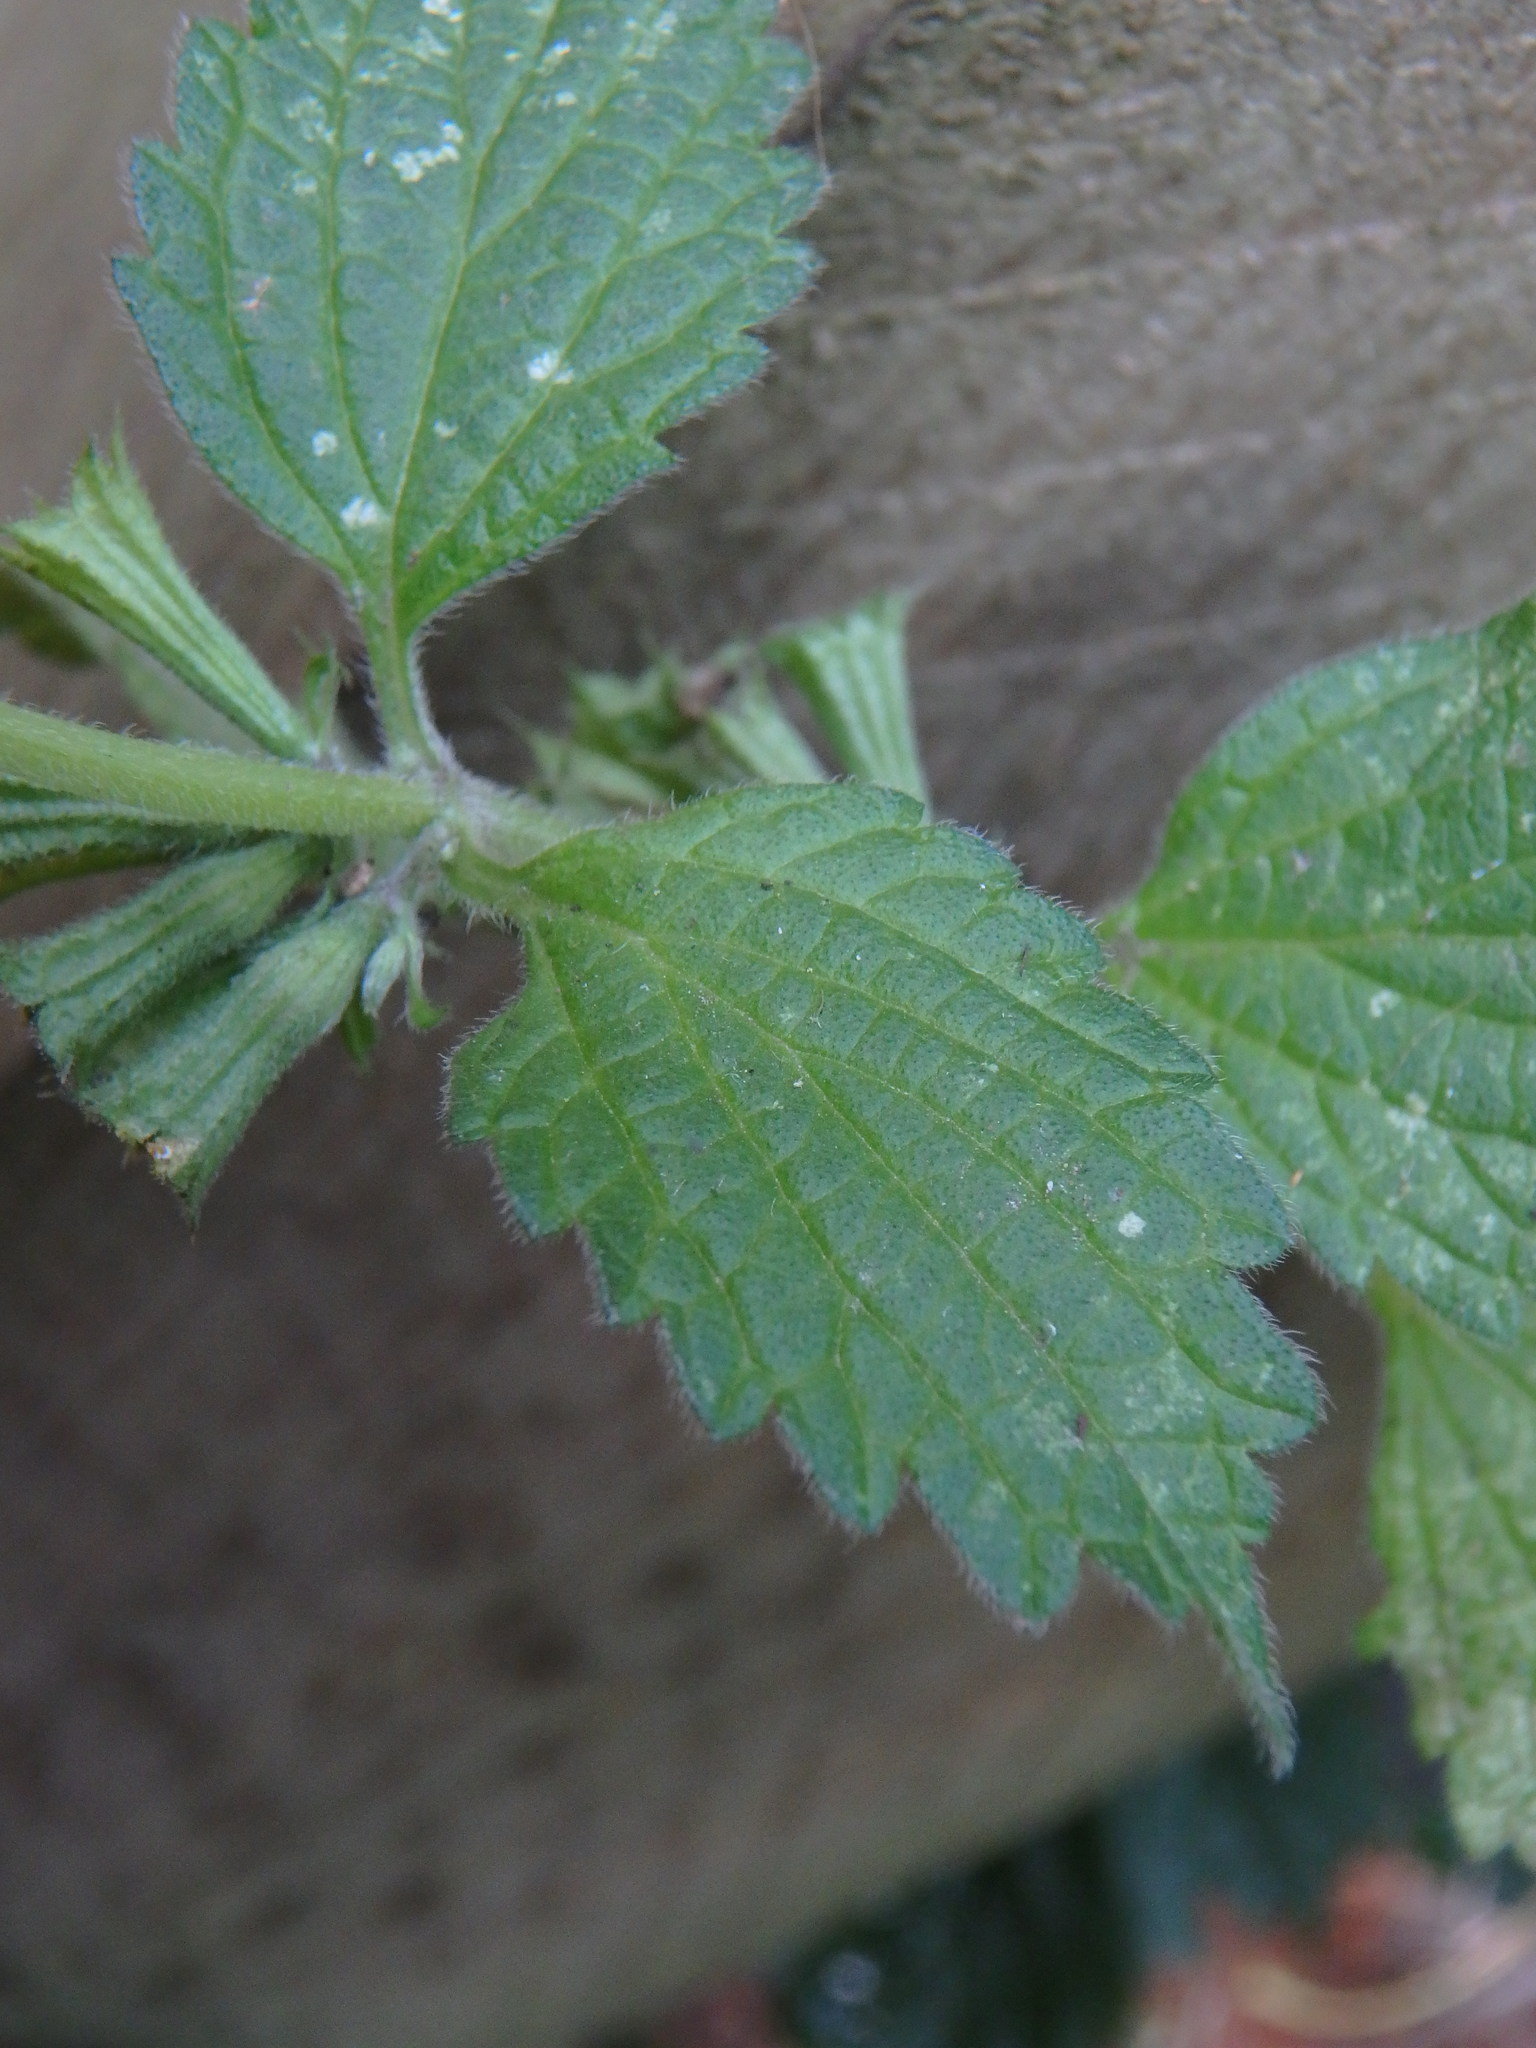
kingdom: Plantae
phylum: Tracheophyta
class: Magnoliopsida
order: Lamiales
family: Lamiaceae
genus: Ballota
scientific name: Ballota nigra
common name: Black horehound
